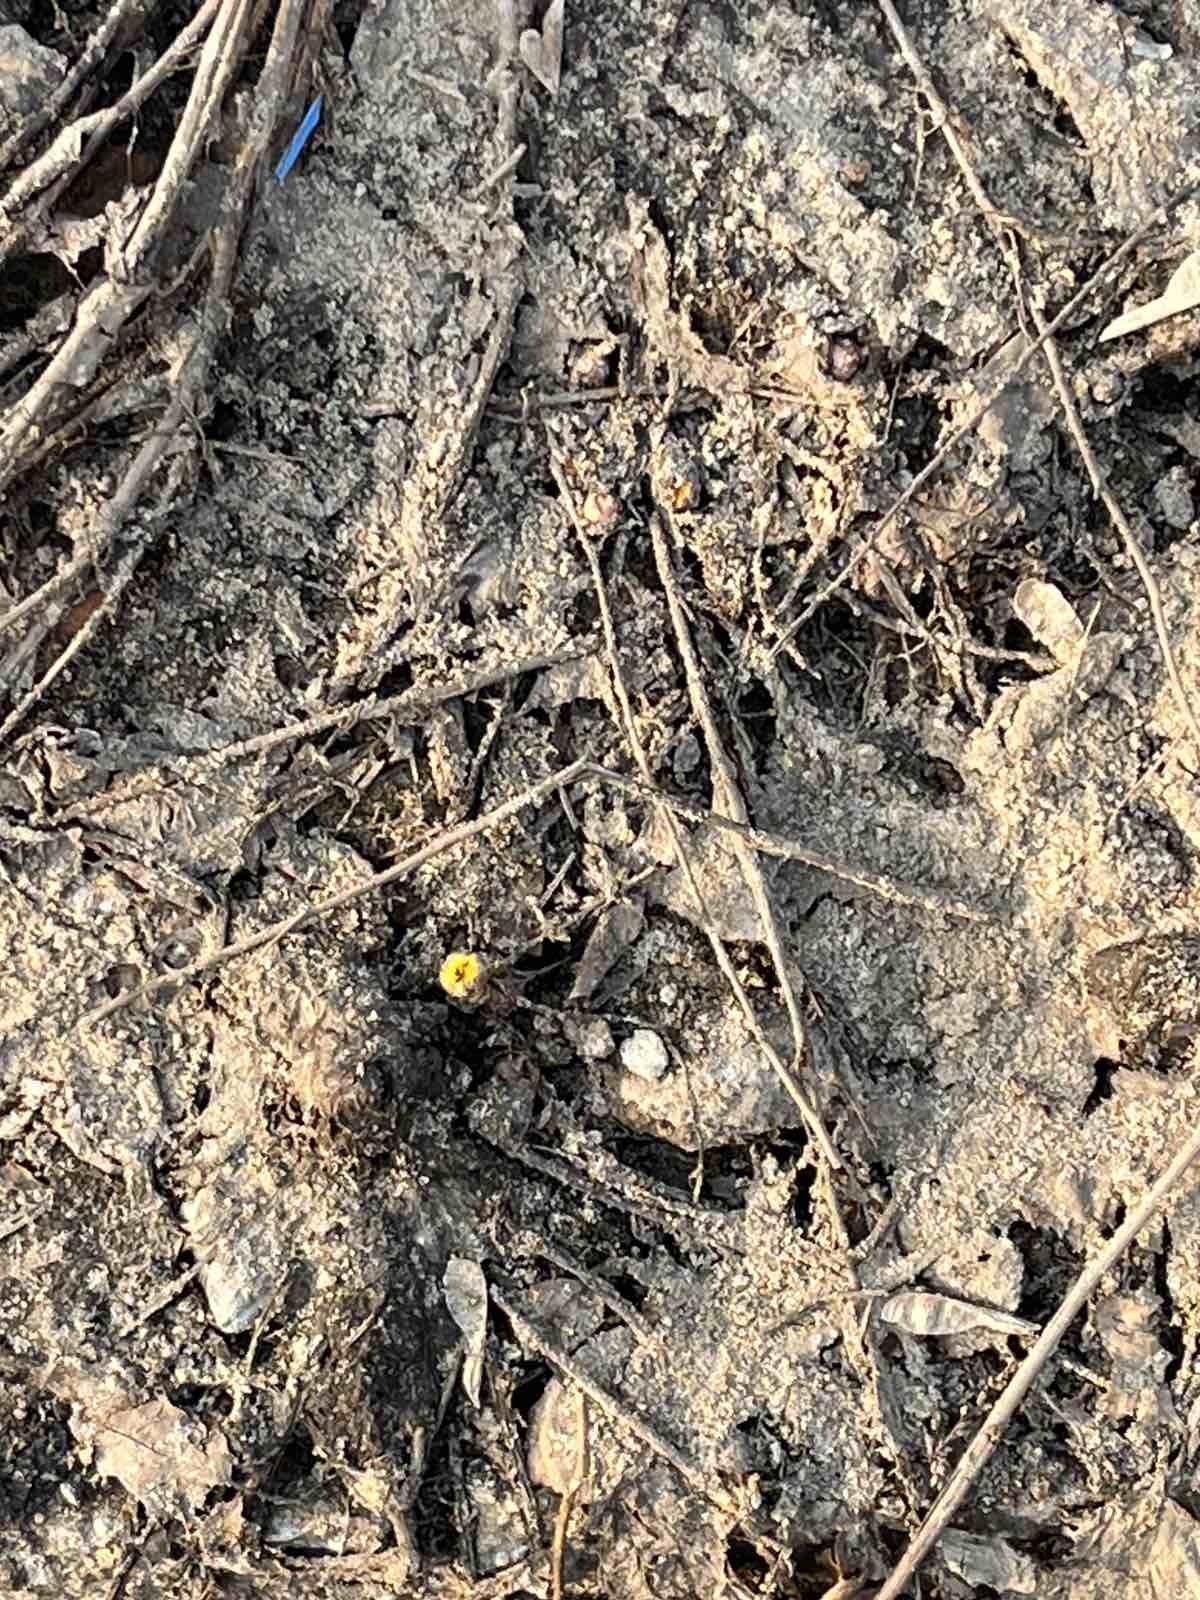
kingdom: Plantae
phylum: Tracheophyta
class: Magnoliopsida
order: Asterales
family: Asteraceae
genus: Tussilago
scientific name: Tussilago farfara
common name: Coltsfoot
